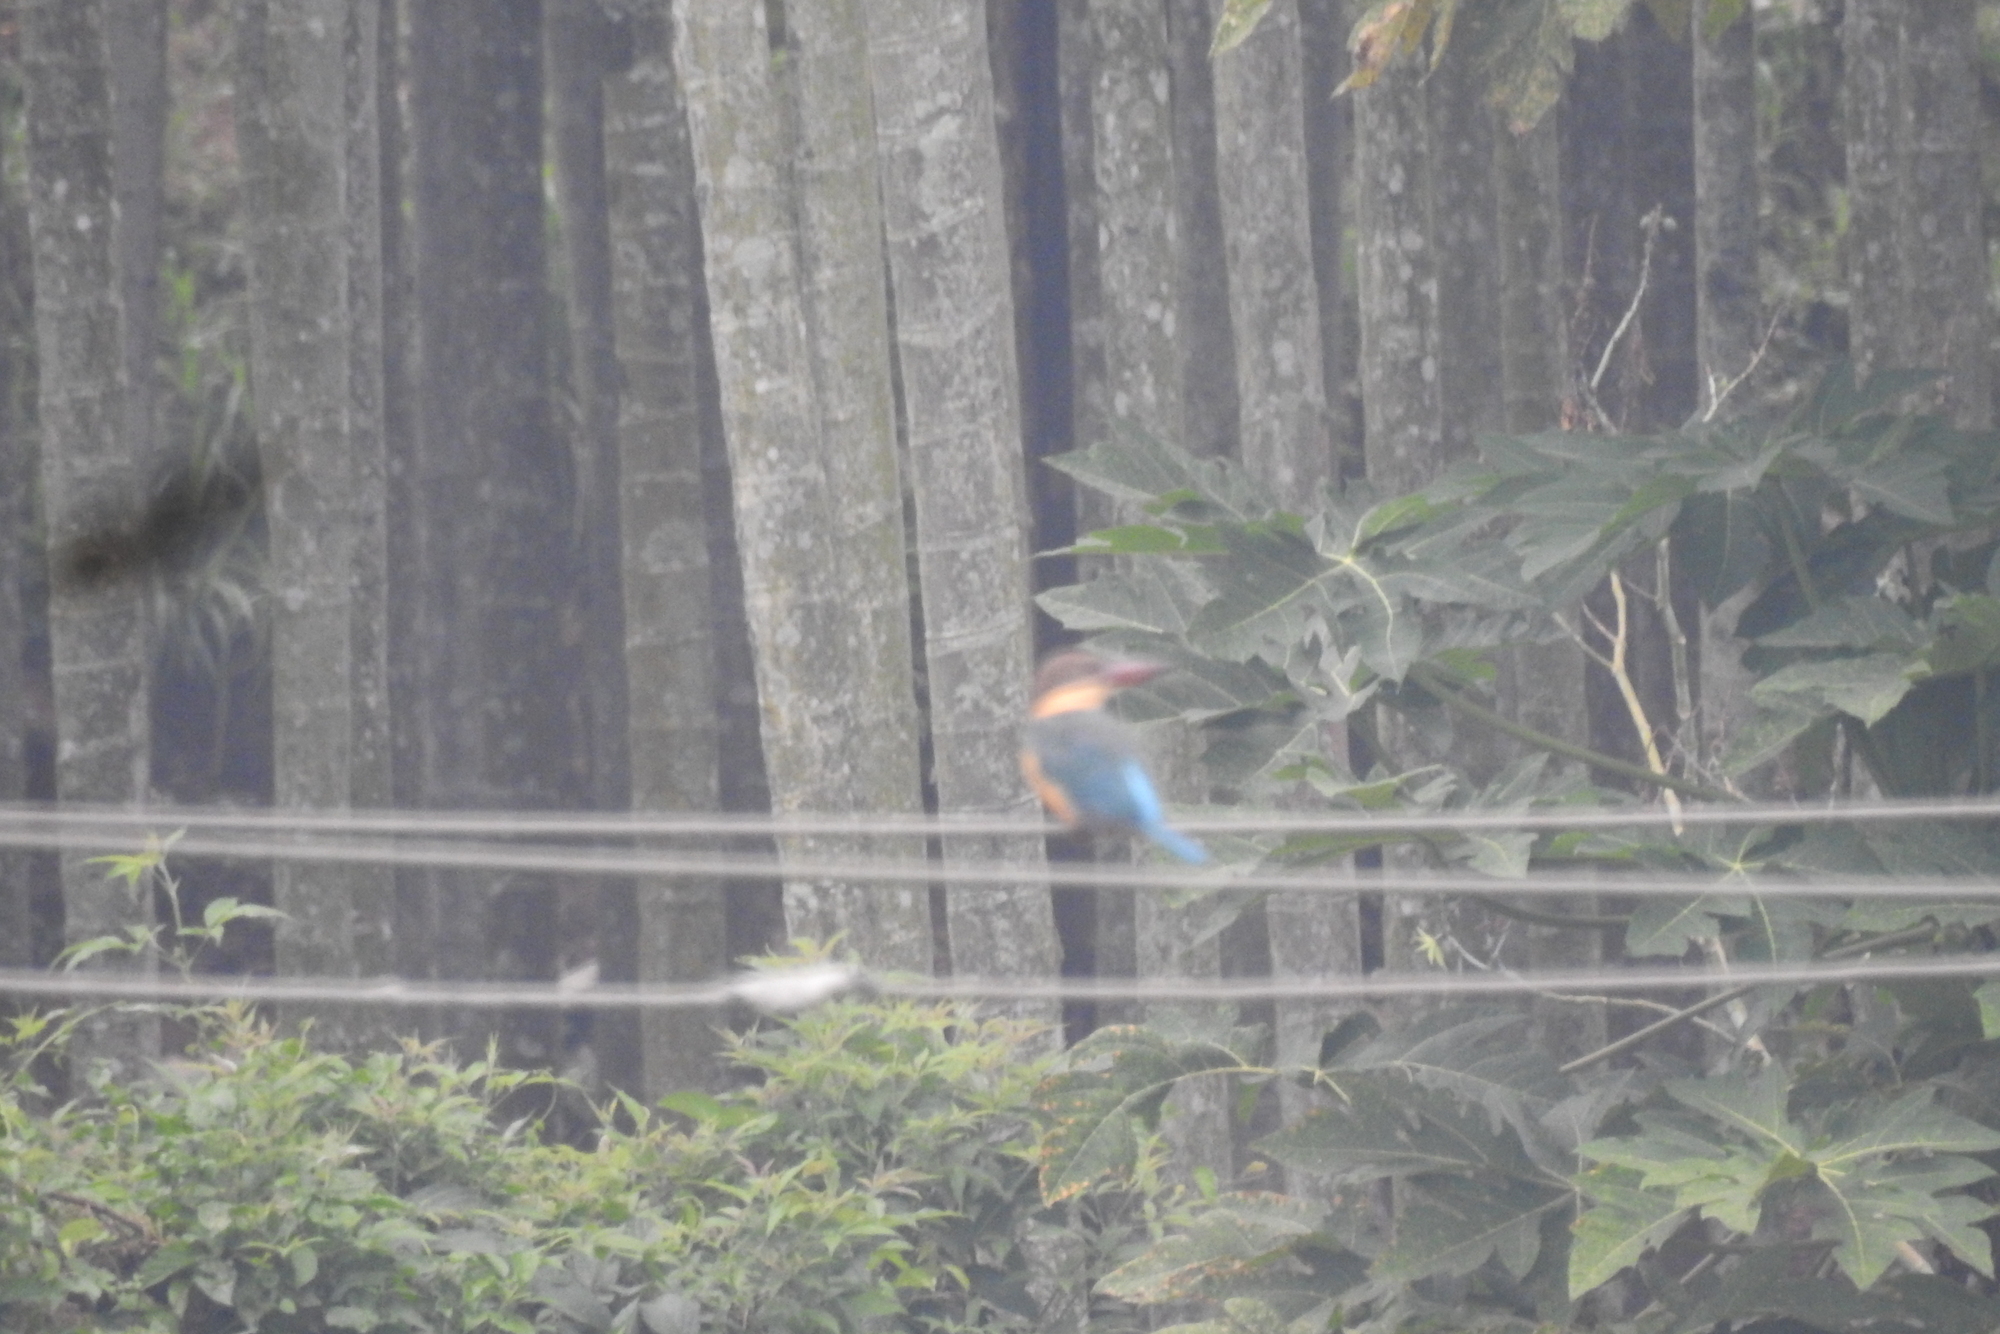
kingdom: Animalia
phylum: Chordata
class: Aves
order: Coraciiformes
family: Alcedinidae
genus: Pelargopsis
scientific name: Pelargopsis capensis
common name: Stork-billed kingfisher
